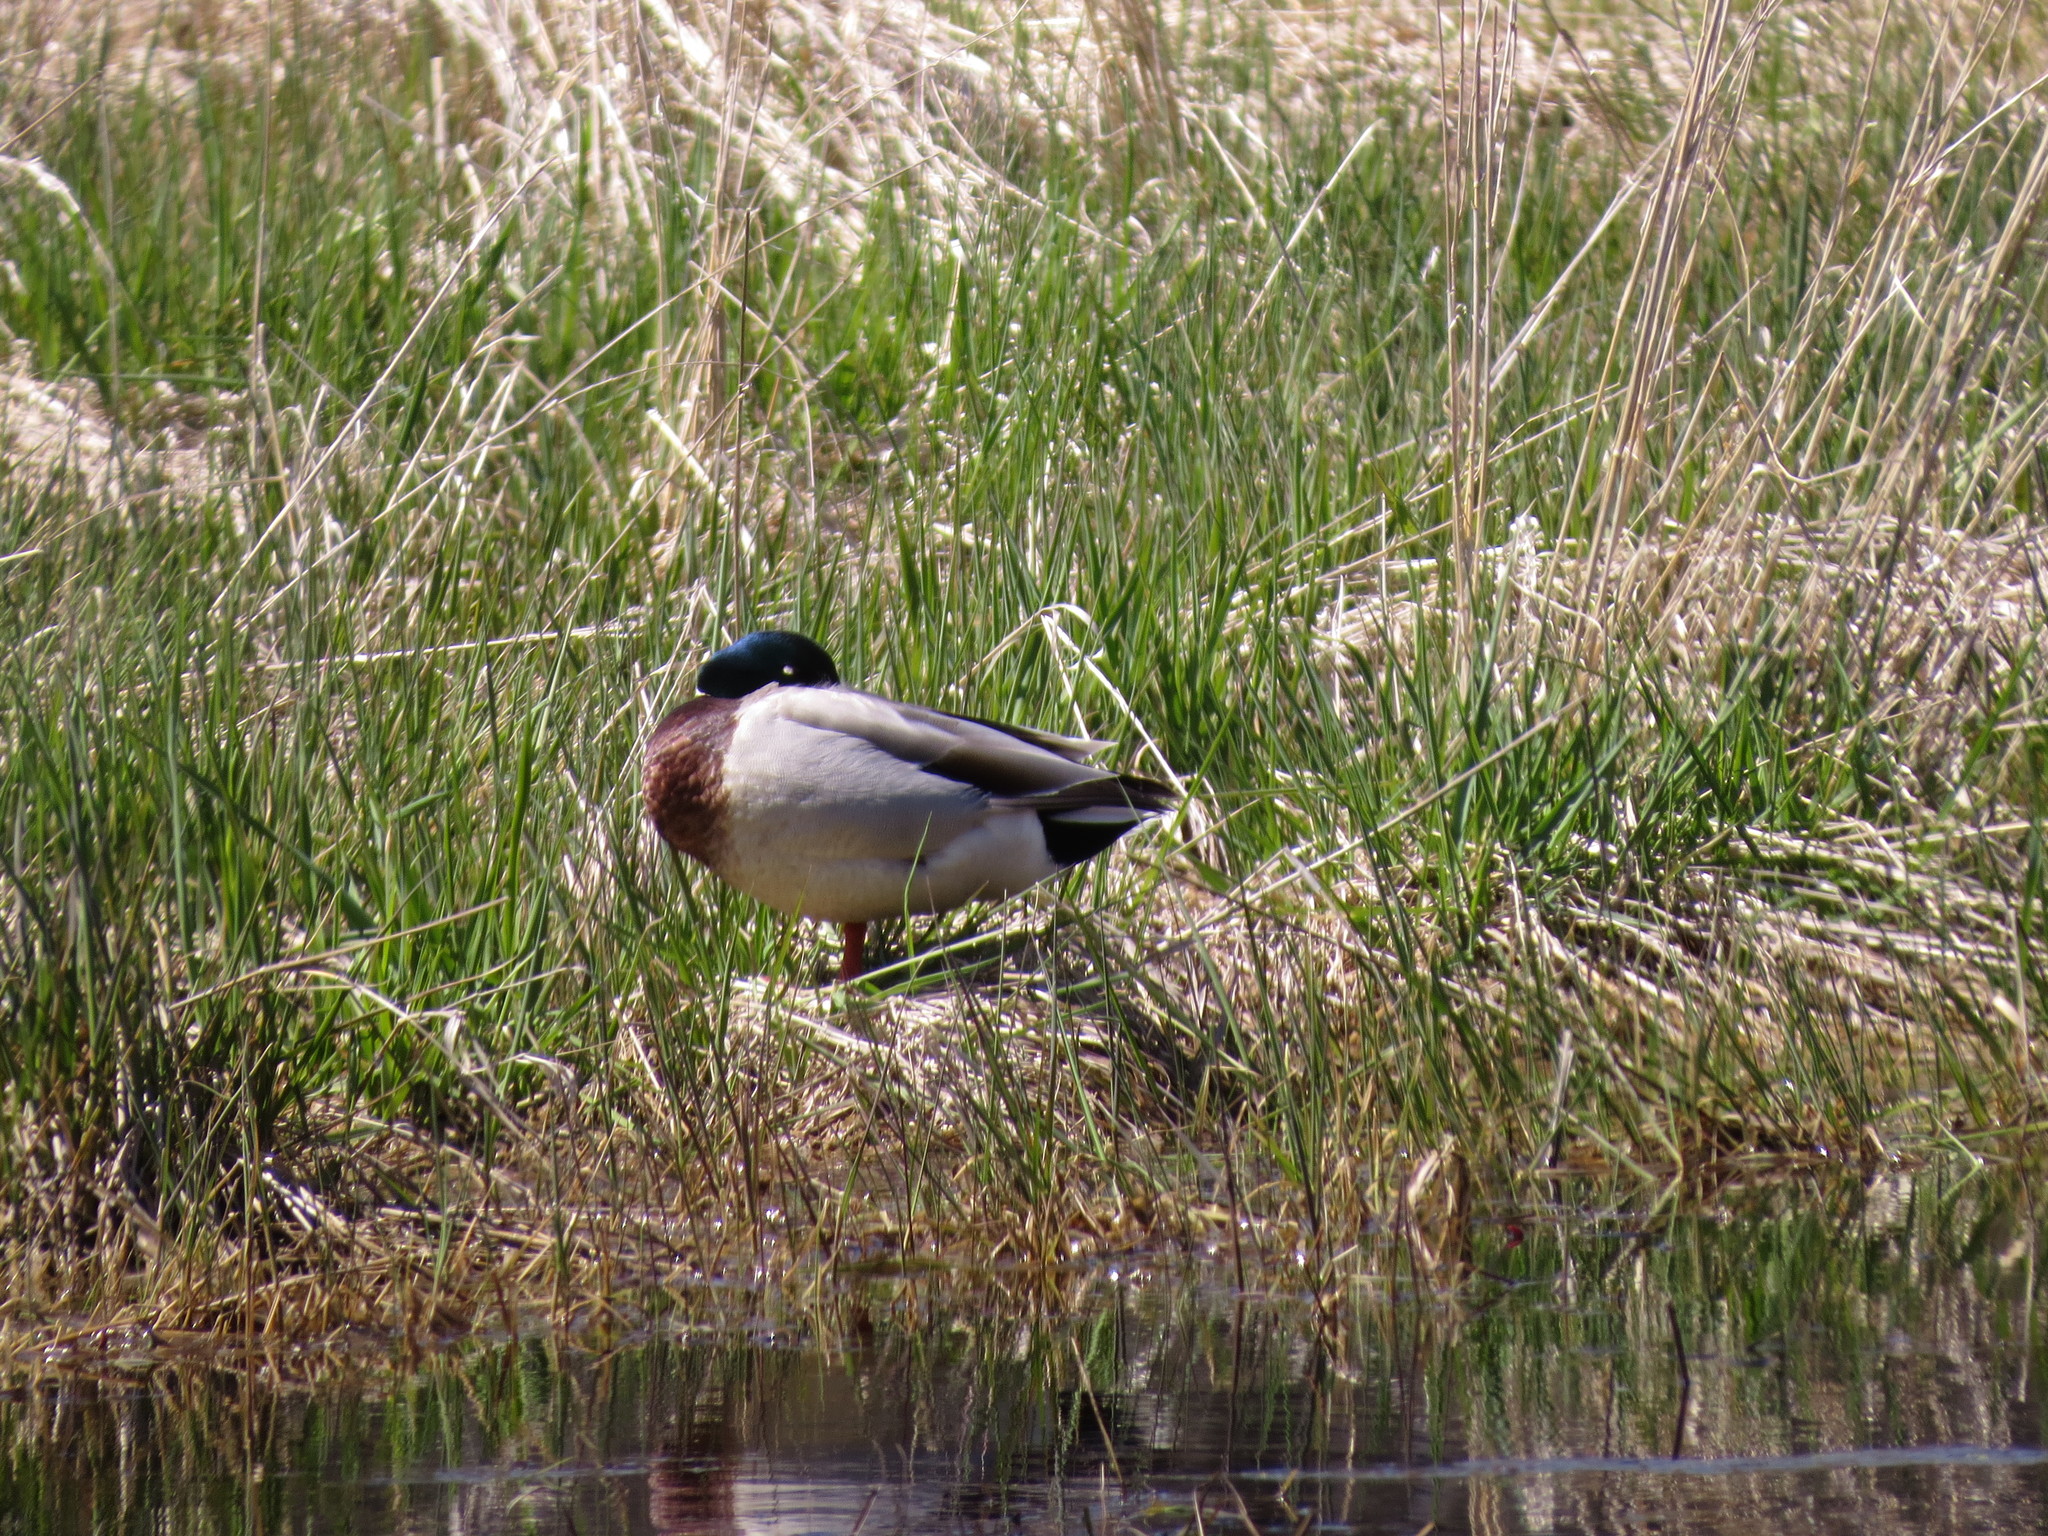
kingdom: Animalia
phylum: Chordata
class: Aves
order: Anseriformes
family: Anatidae
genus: Anas
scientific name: Anas platyrhynchos
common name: Mallard
